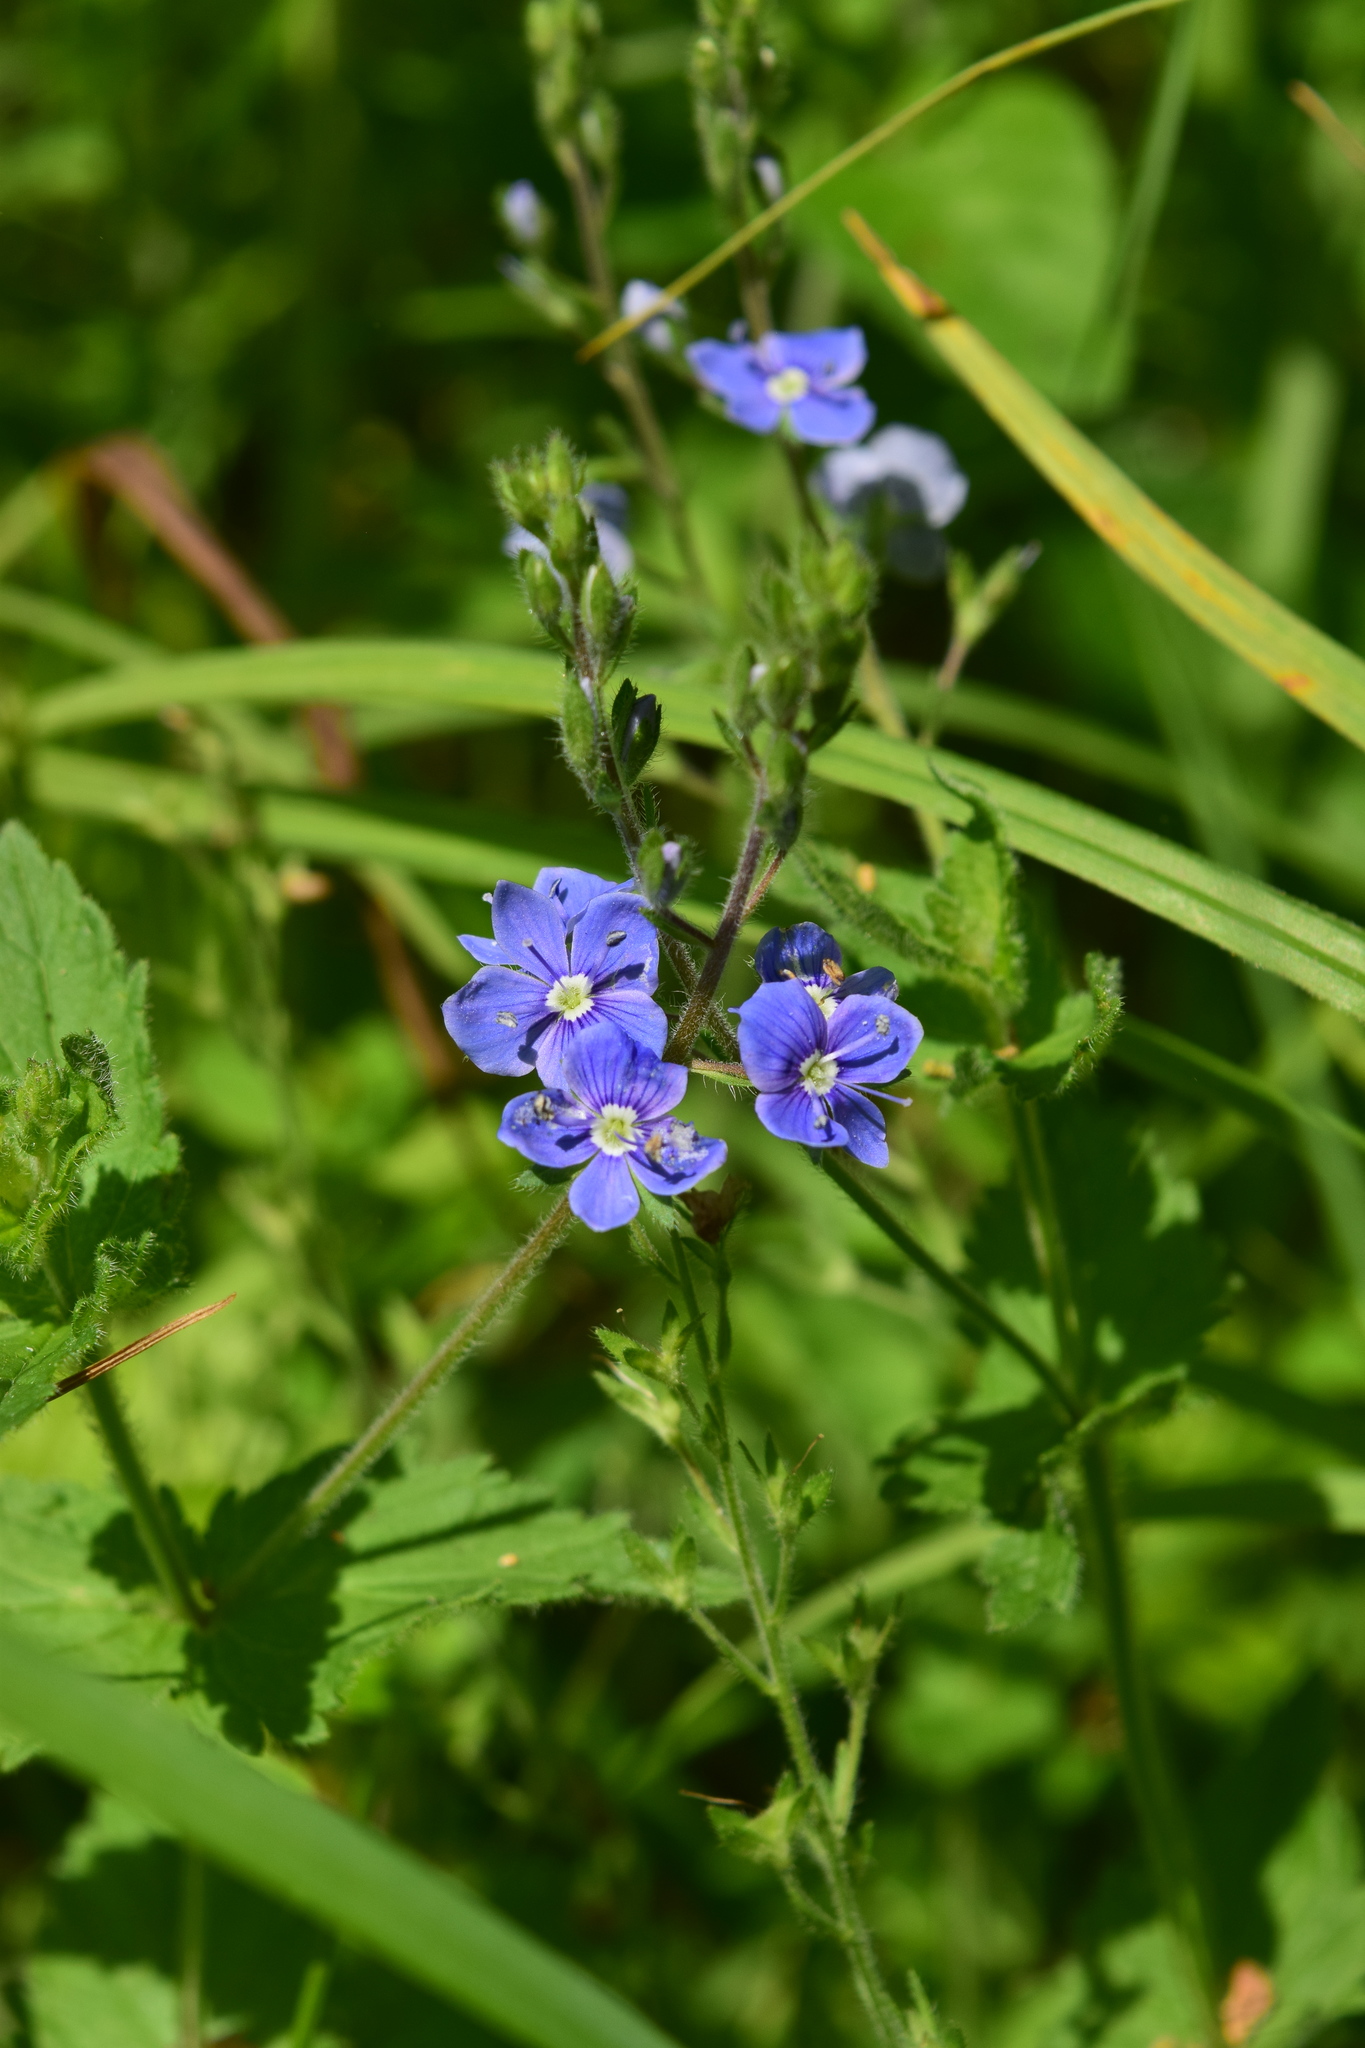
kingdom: Plantae
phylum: Tracheophyta
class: Magnoliopsida
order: Lamiales
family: Plantaginaceae
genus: Veronica
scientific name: Veronica chamaedrys
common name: Germander speedwell
